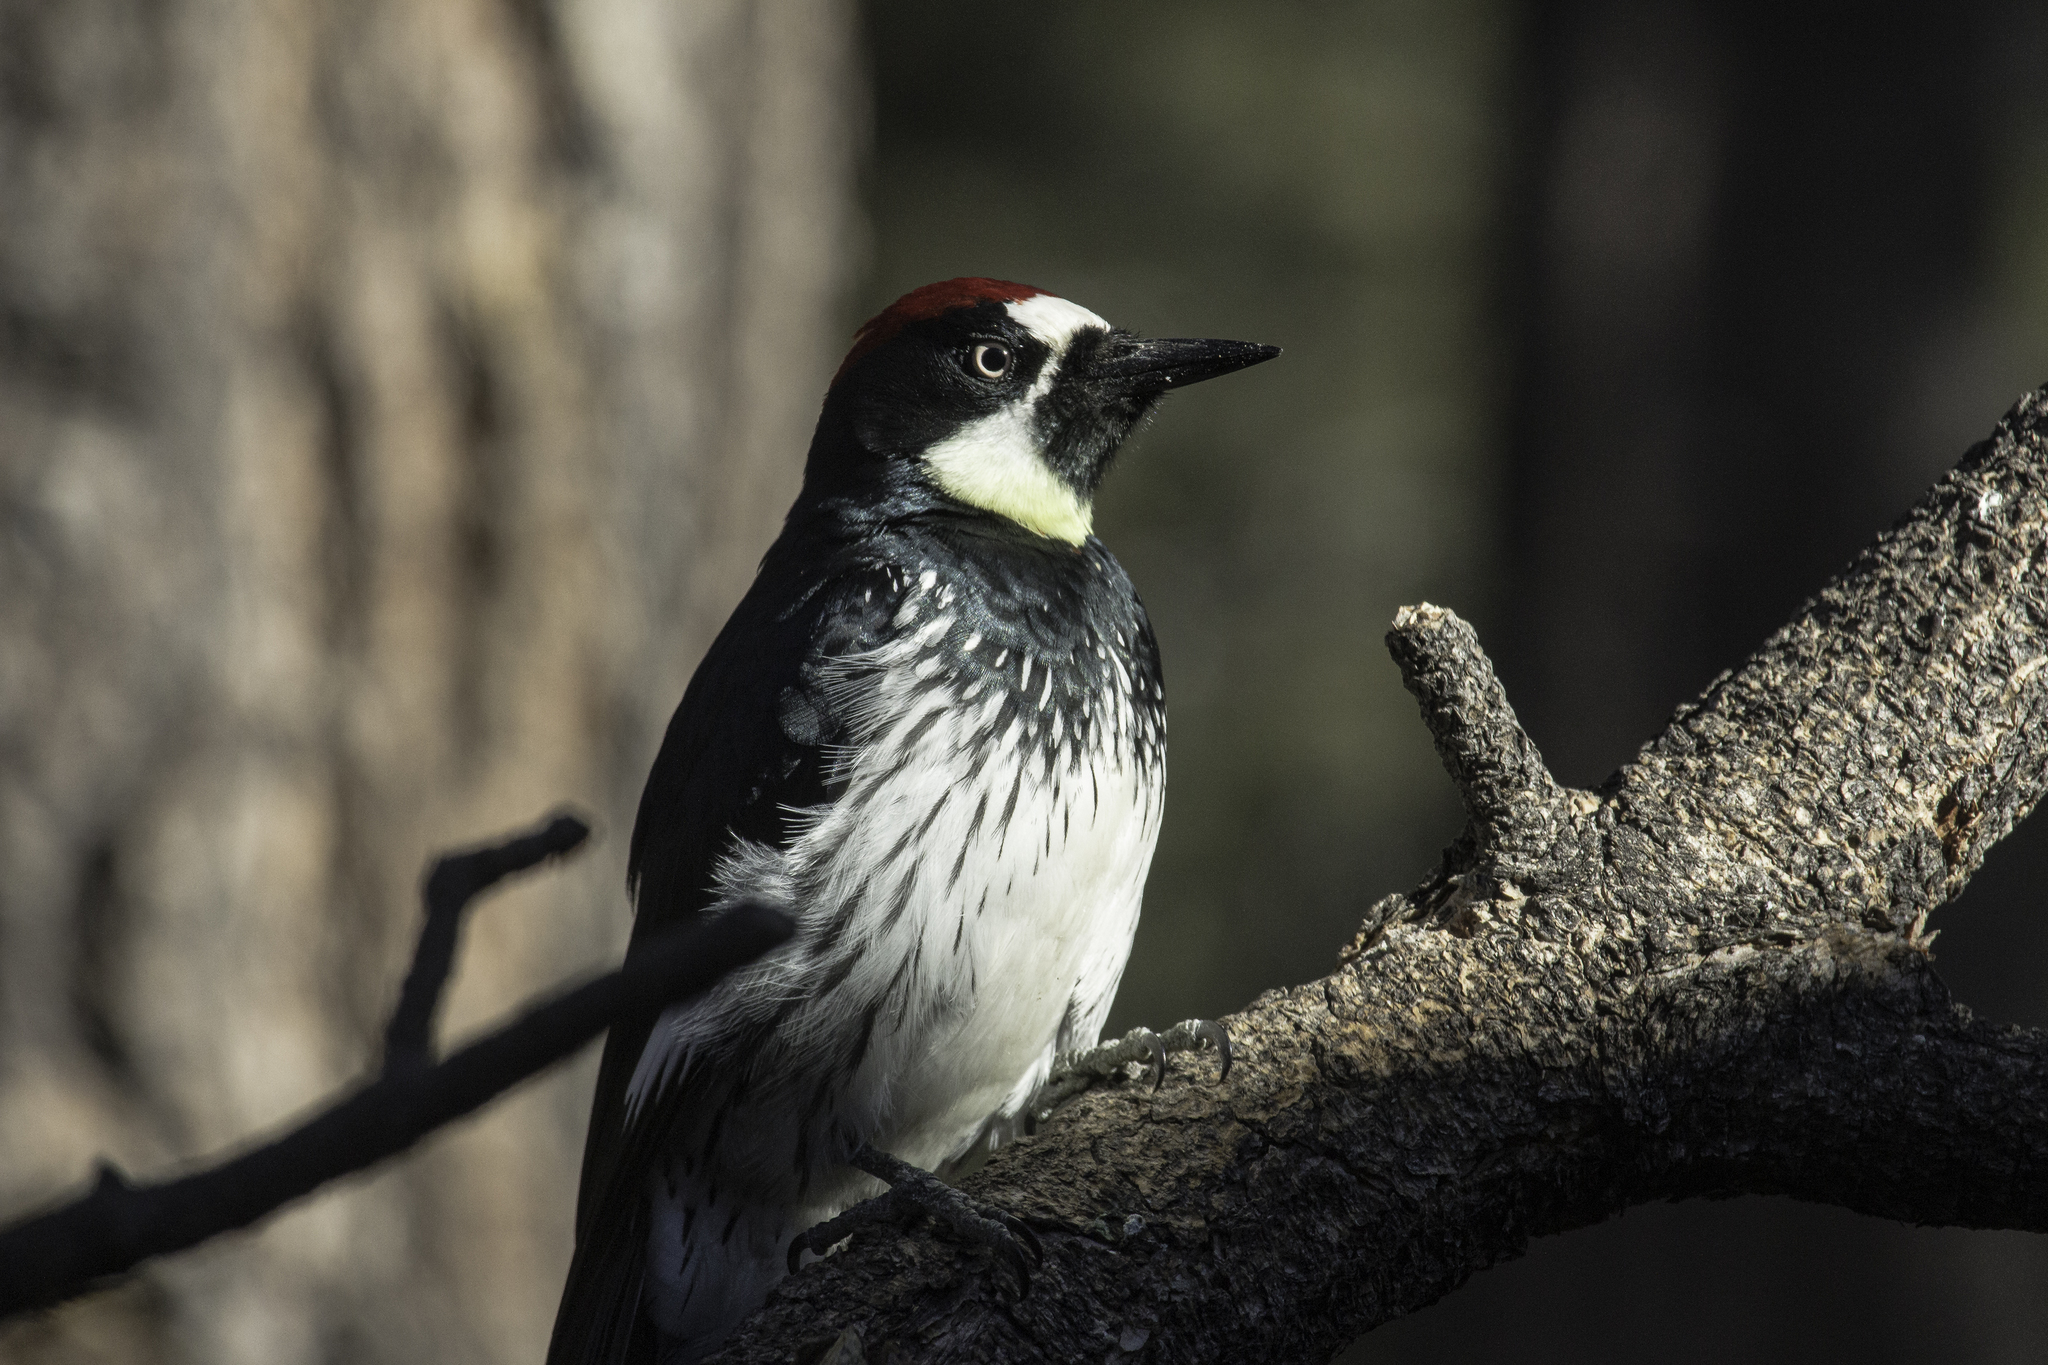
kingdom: Animalia
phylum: Chordata
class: Aves
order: Piciformes
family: Picidae
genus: Melanerpes
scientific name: Melanerpes formicivorus
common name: Acorn woodpecker
